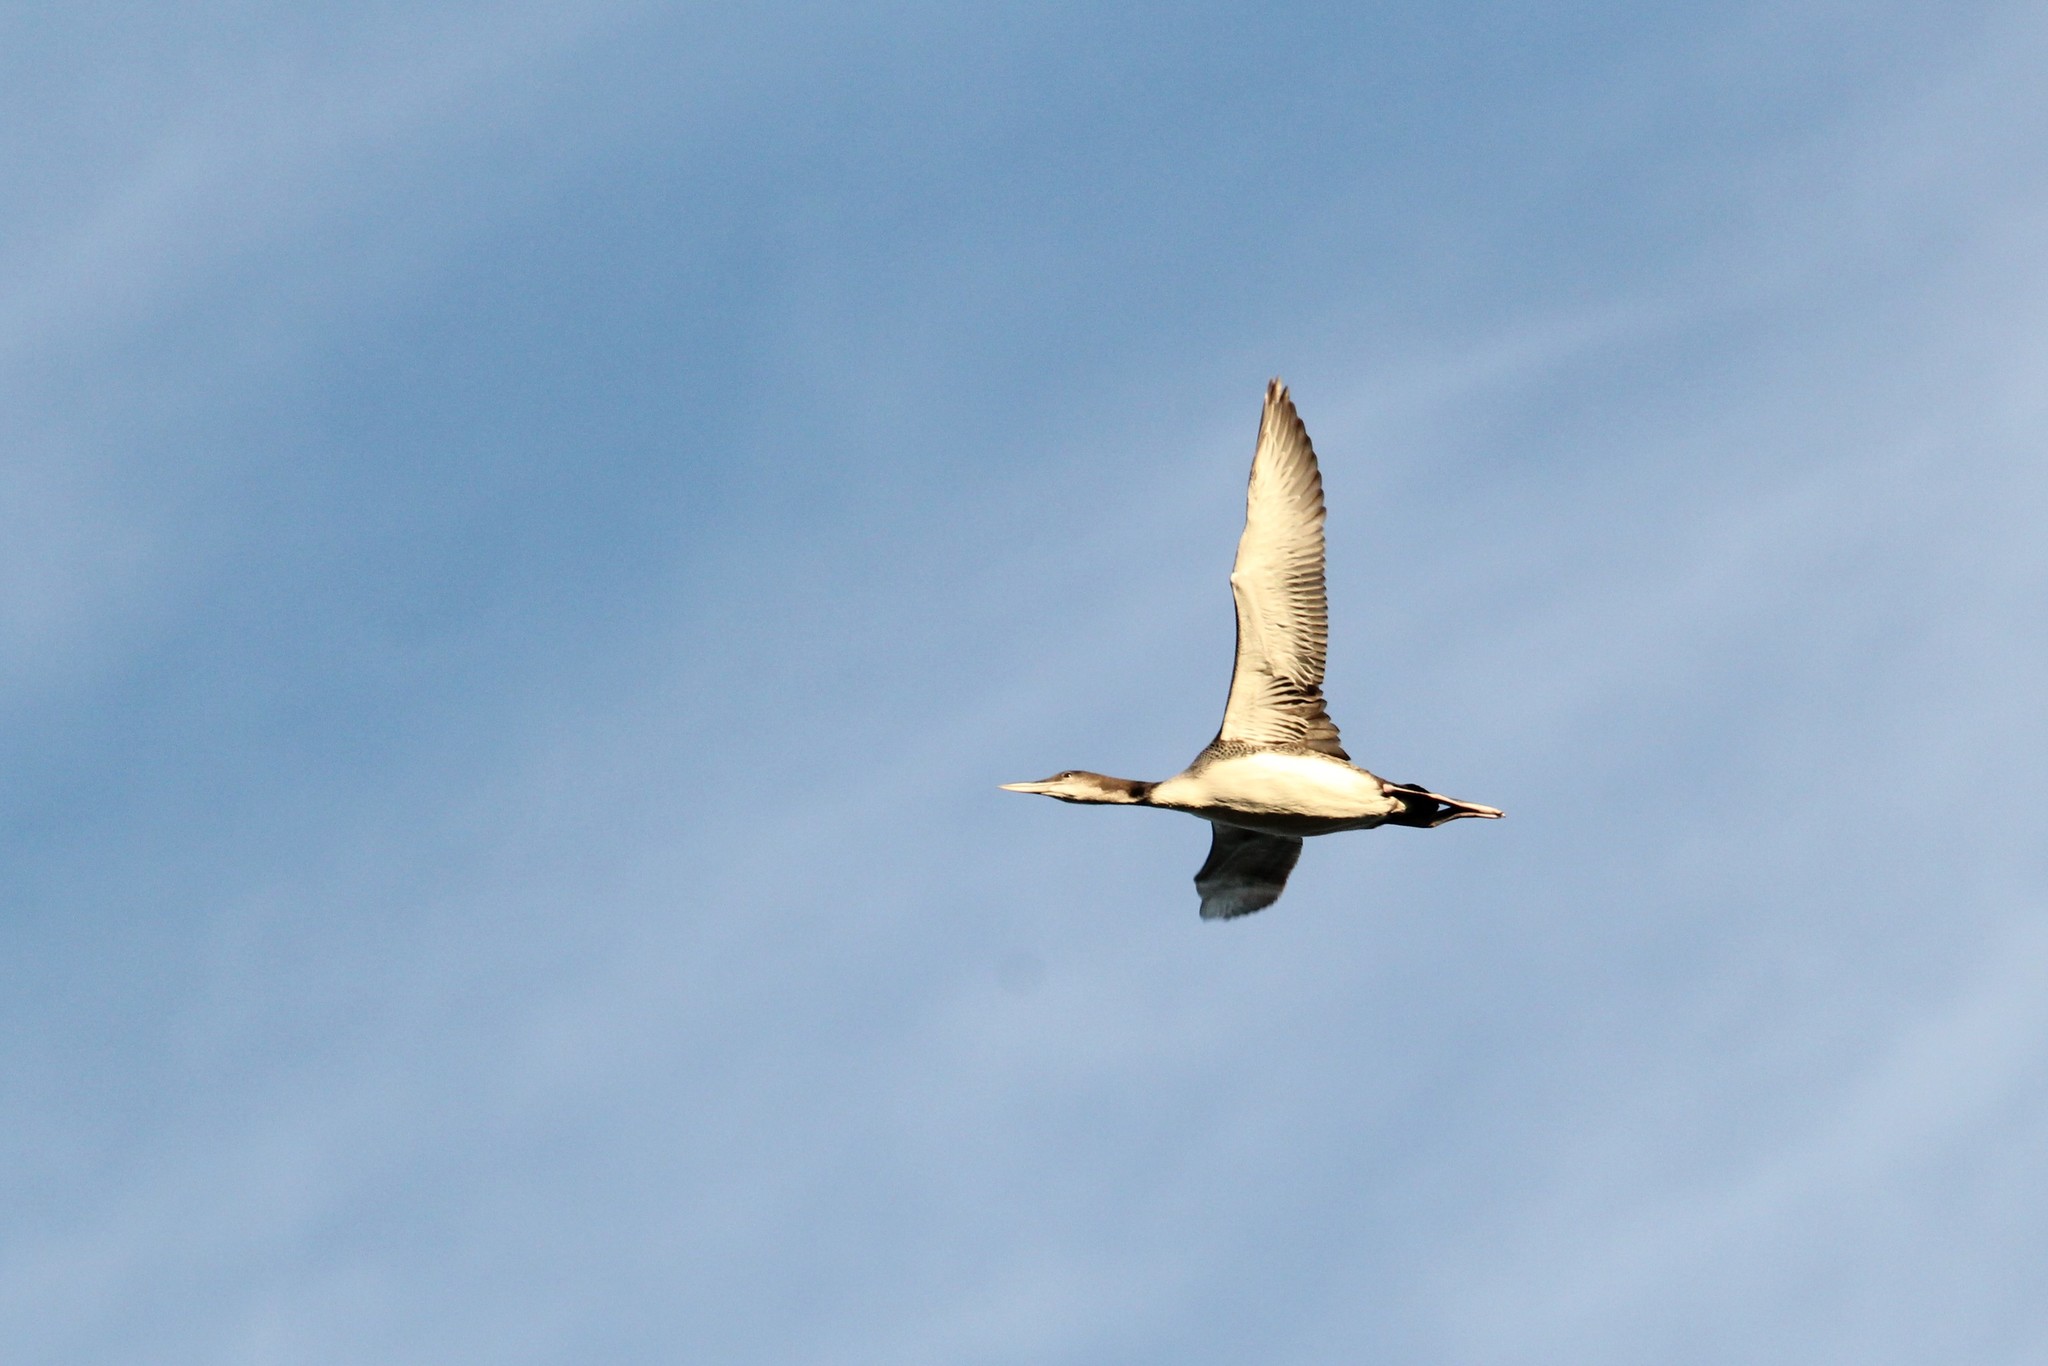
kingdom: Animalia
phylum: Chordata
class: Aves
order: Gaviiformes
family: Gaviidae
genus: Gavia
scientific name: Gavia immer
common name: Common loon
